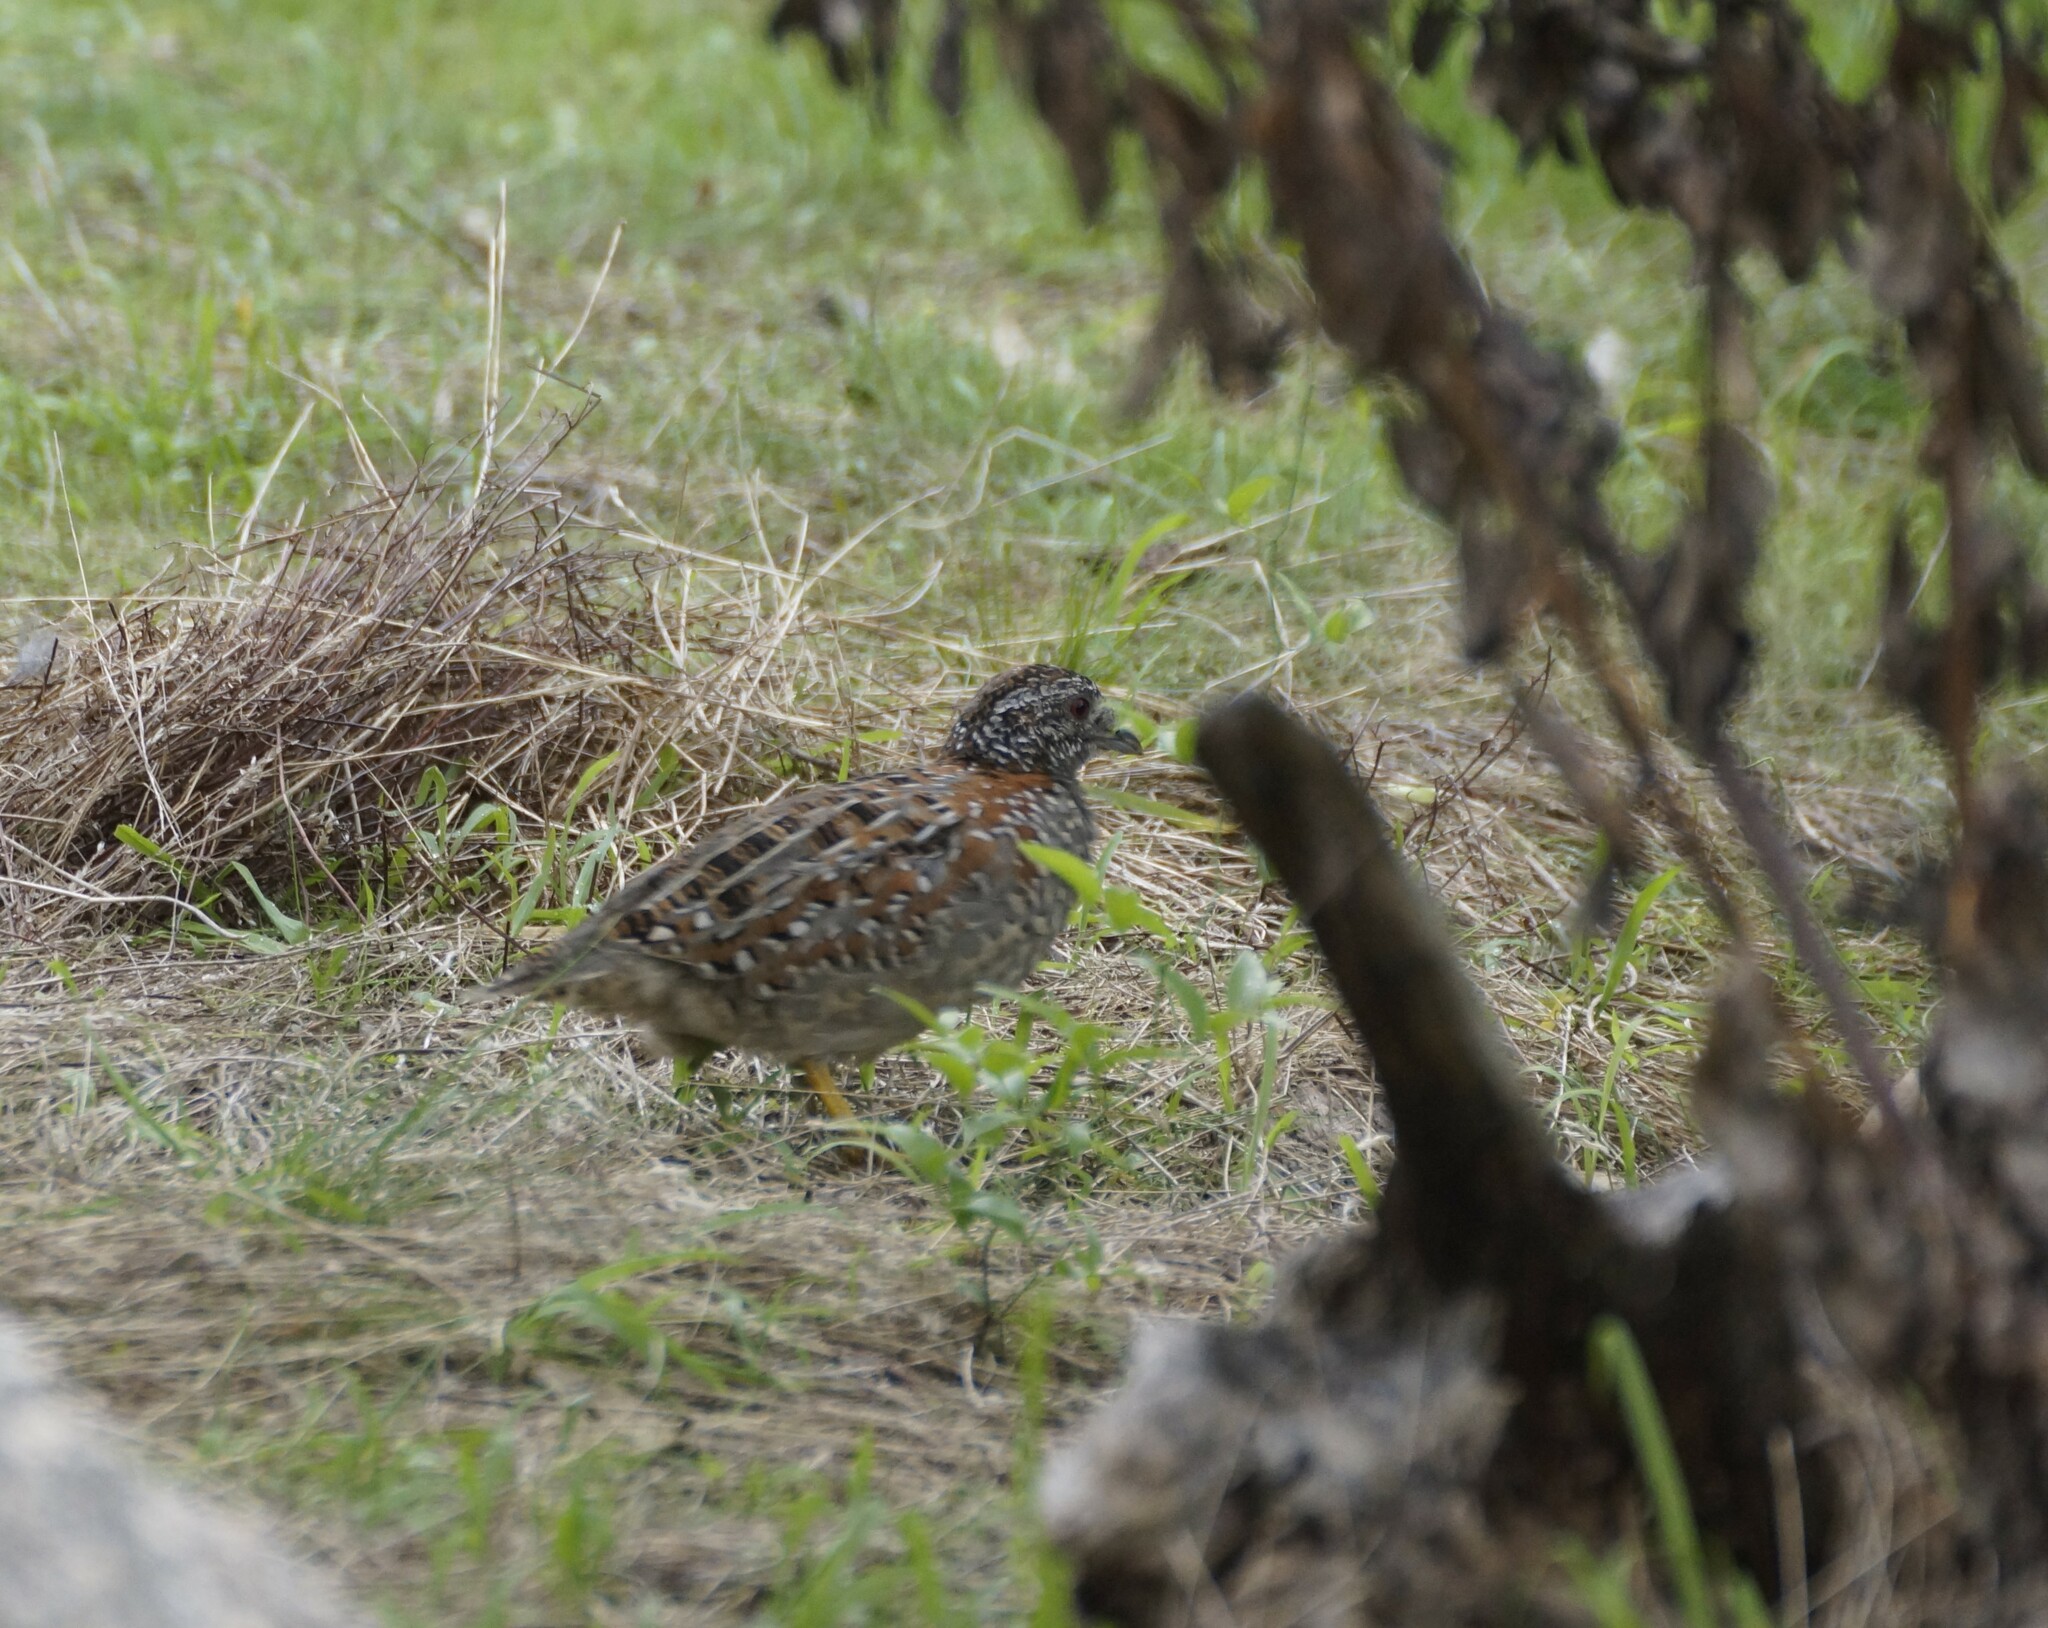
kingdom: Animalia
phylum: Chordata
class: Aves
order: Charadriiformes
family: Turnicidae
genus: Turnix
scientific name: Turnix varius
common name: Painted buttonquail
